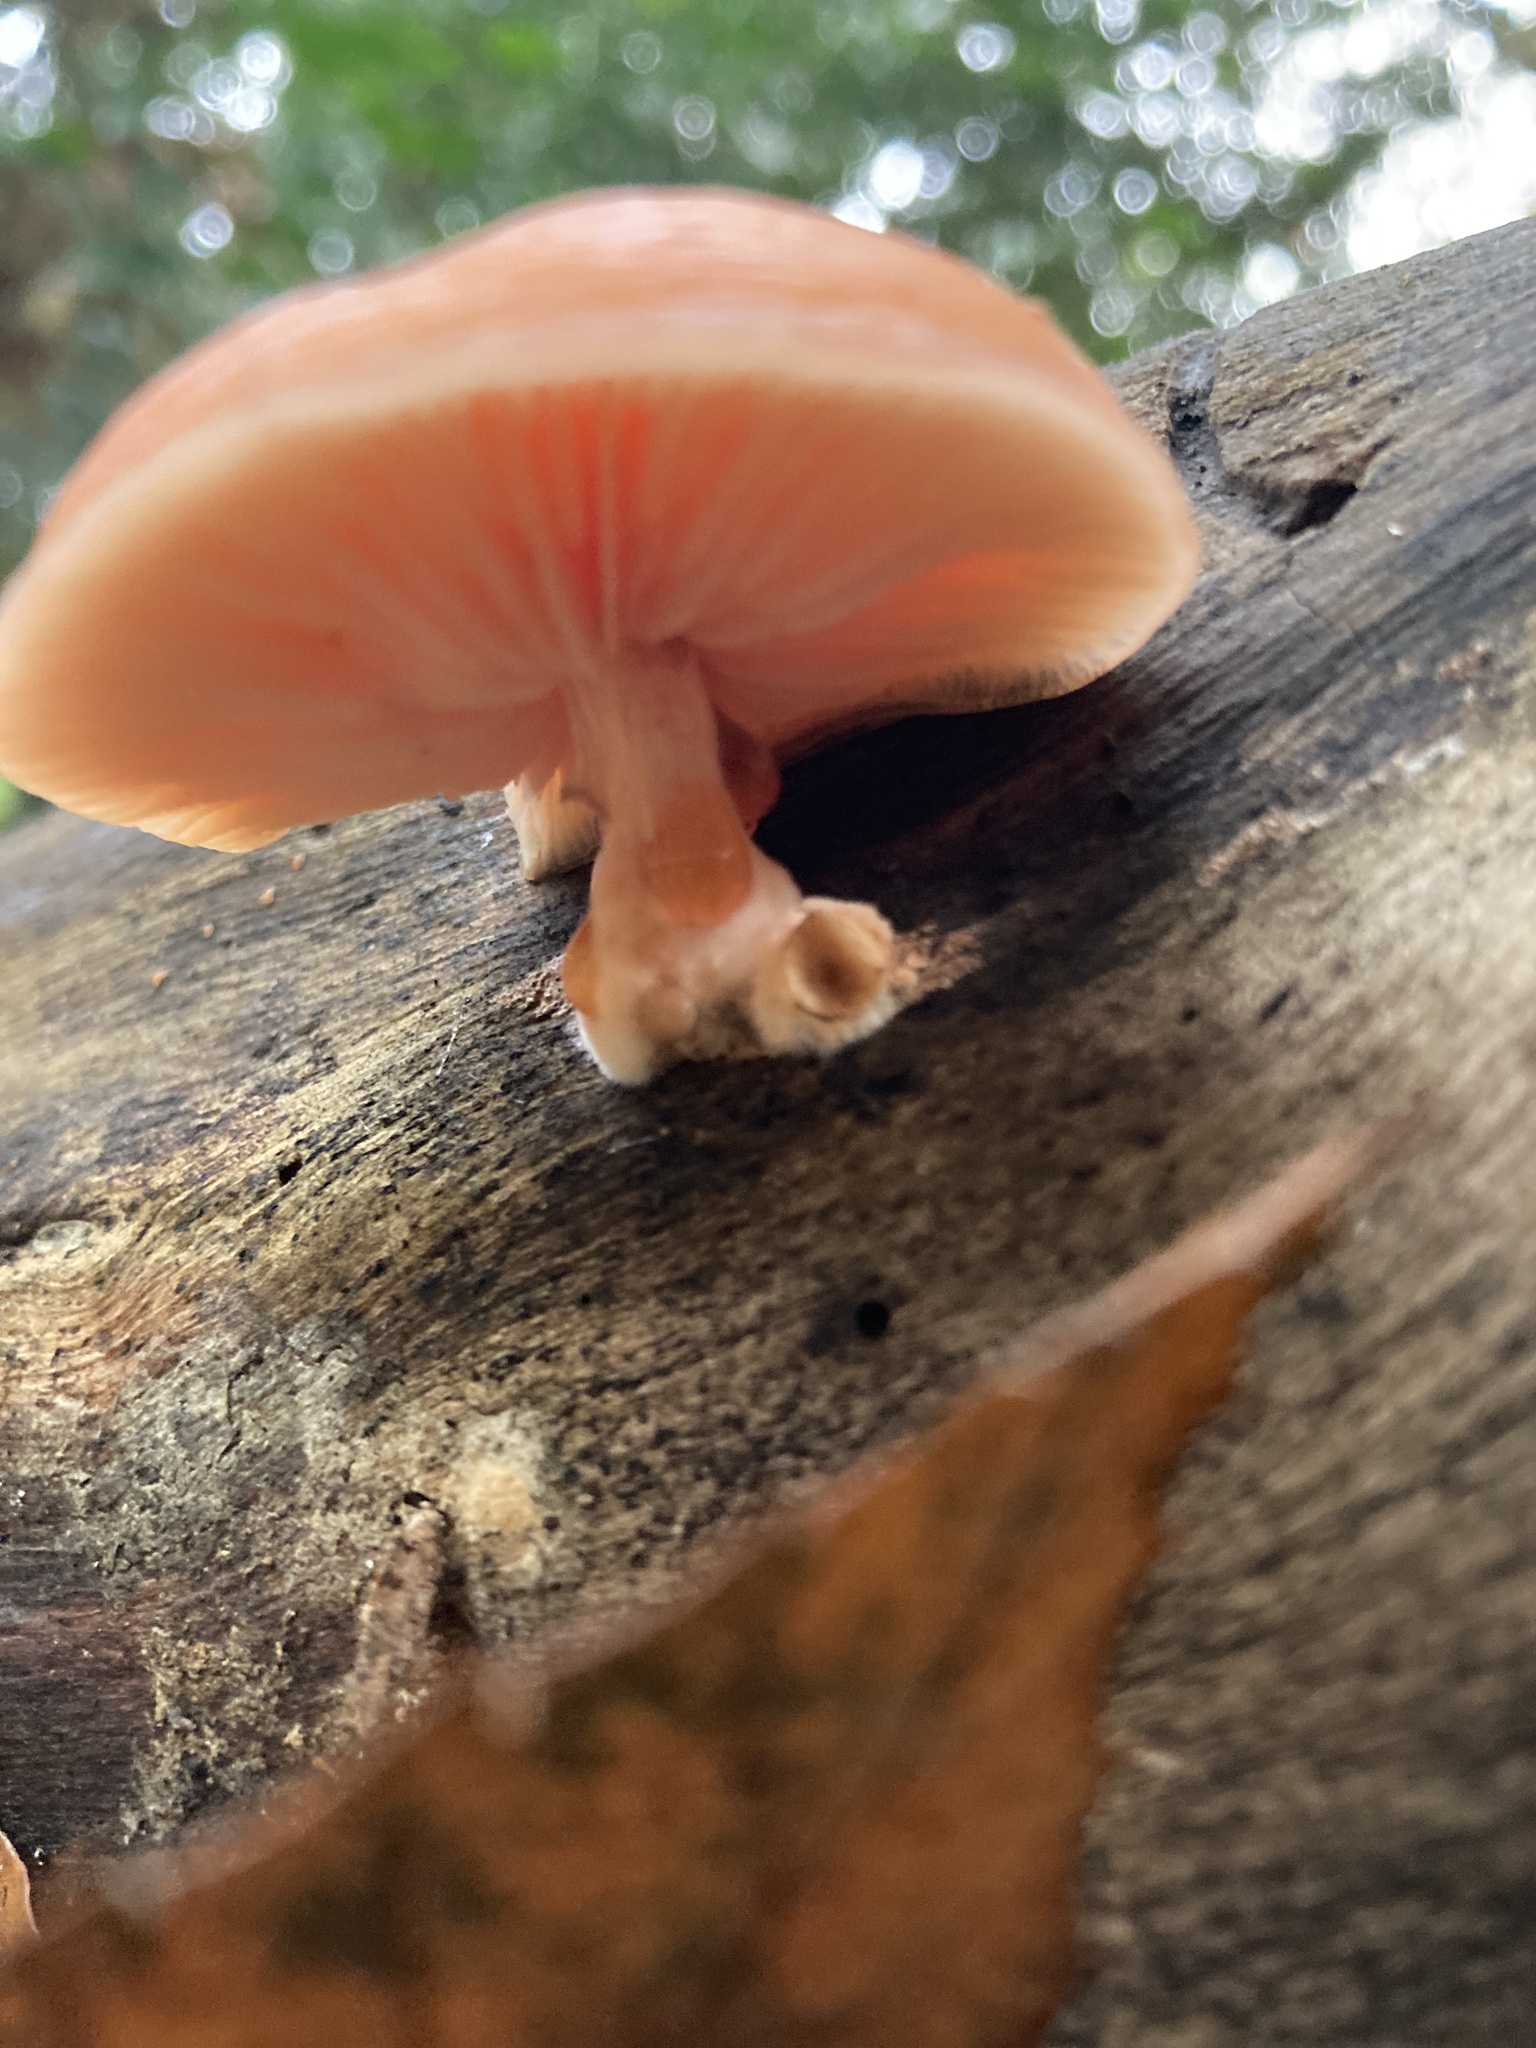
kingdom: Fungi
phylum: Basidiomycota
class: Agaricomycetes
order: Agaricales
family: Physalacriaceae
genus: Rhodotus
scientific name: Rhodotus palmatus
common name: Wrinkled peach
